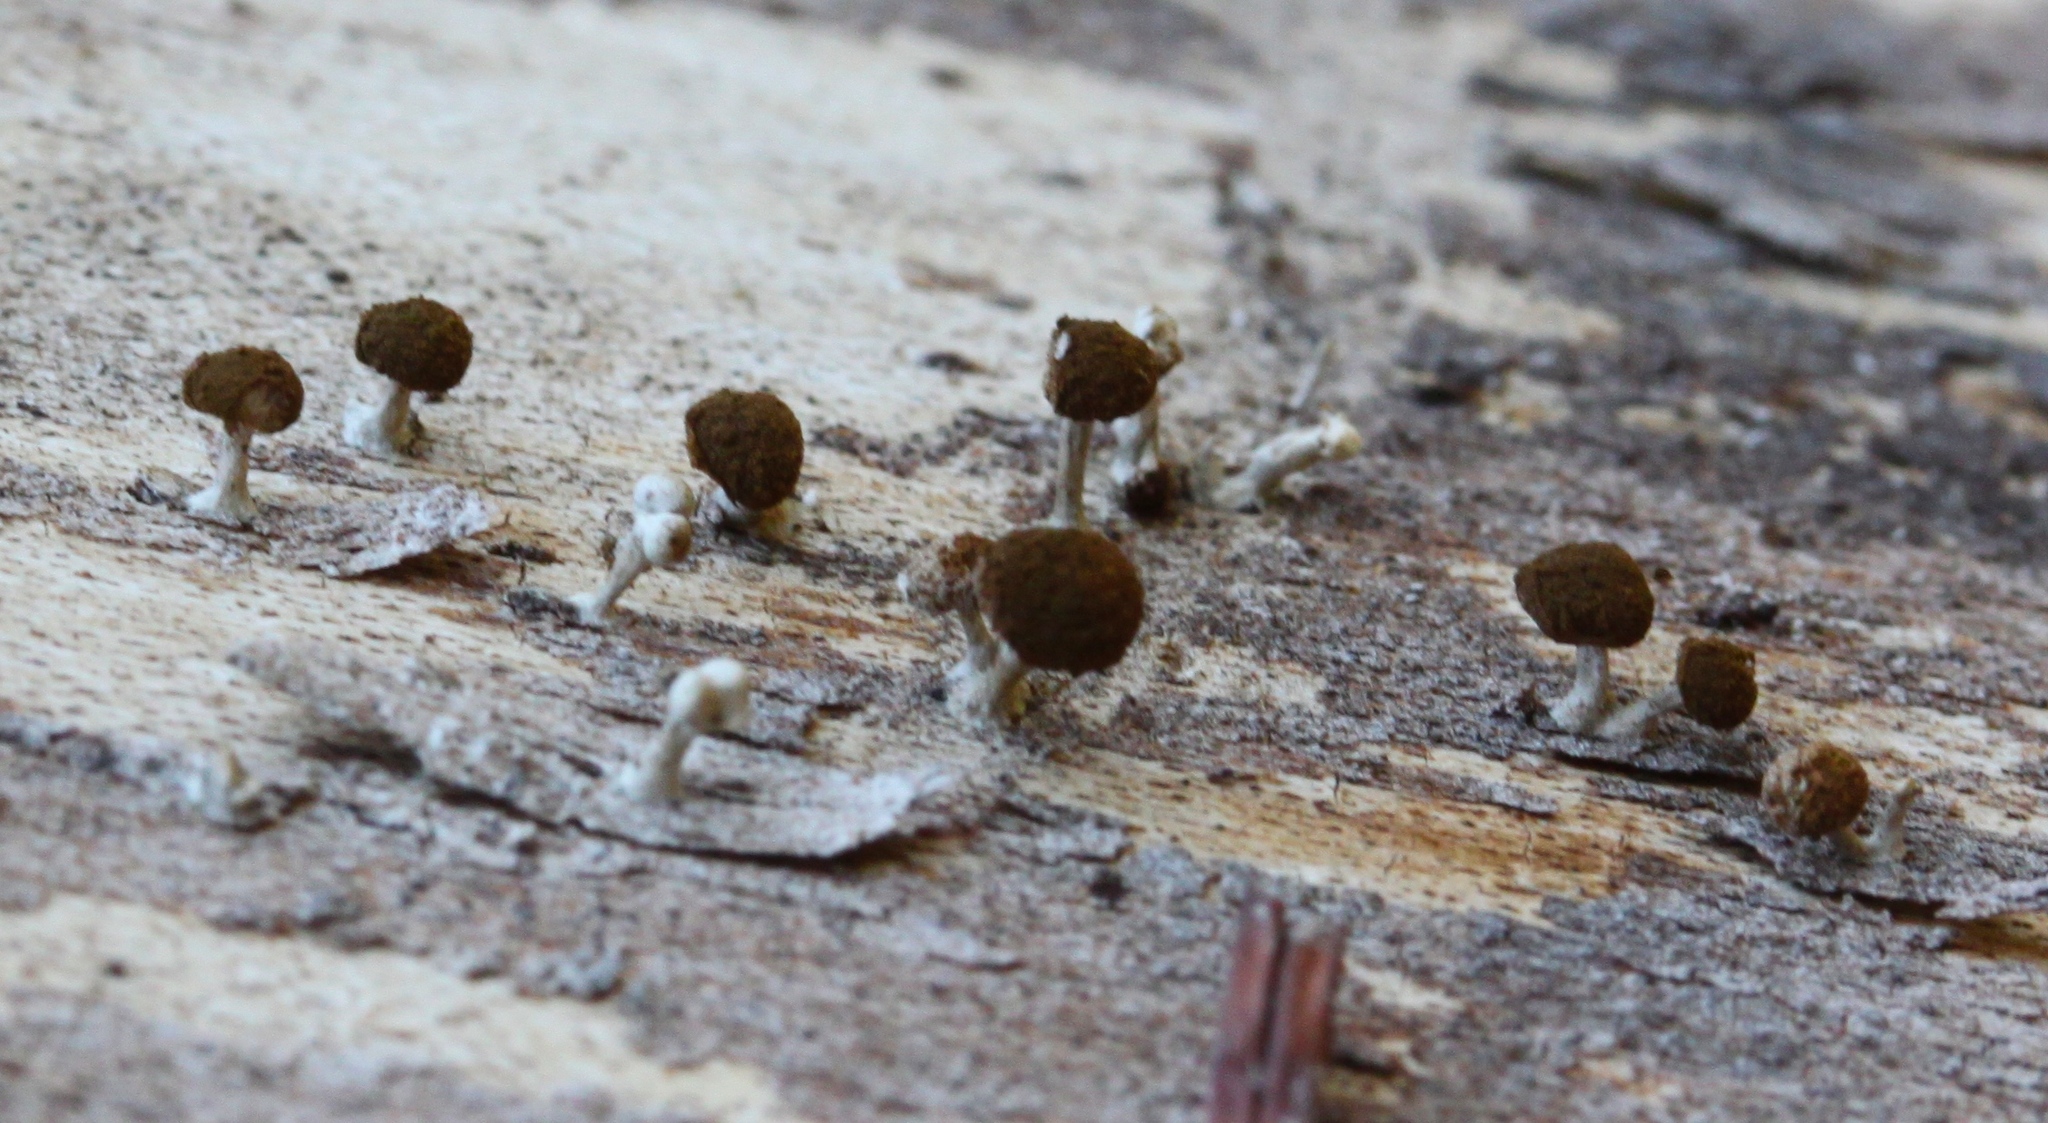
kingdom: Fungi
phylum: Basidiomycota
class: Atractiellomycetes
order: Atractiellales
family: Phleogenaceae
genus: Phleogena
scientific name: Phleogena faginea
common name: Fenugreek stalkball
